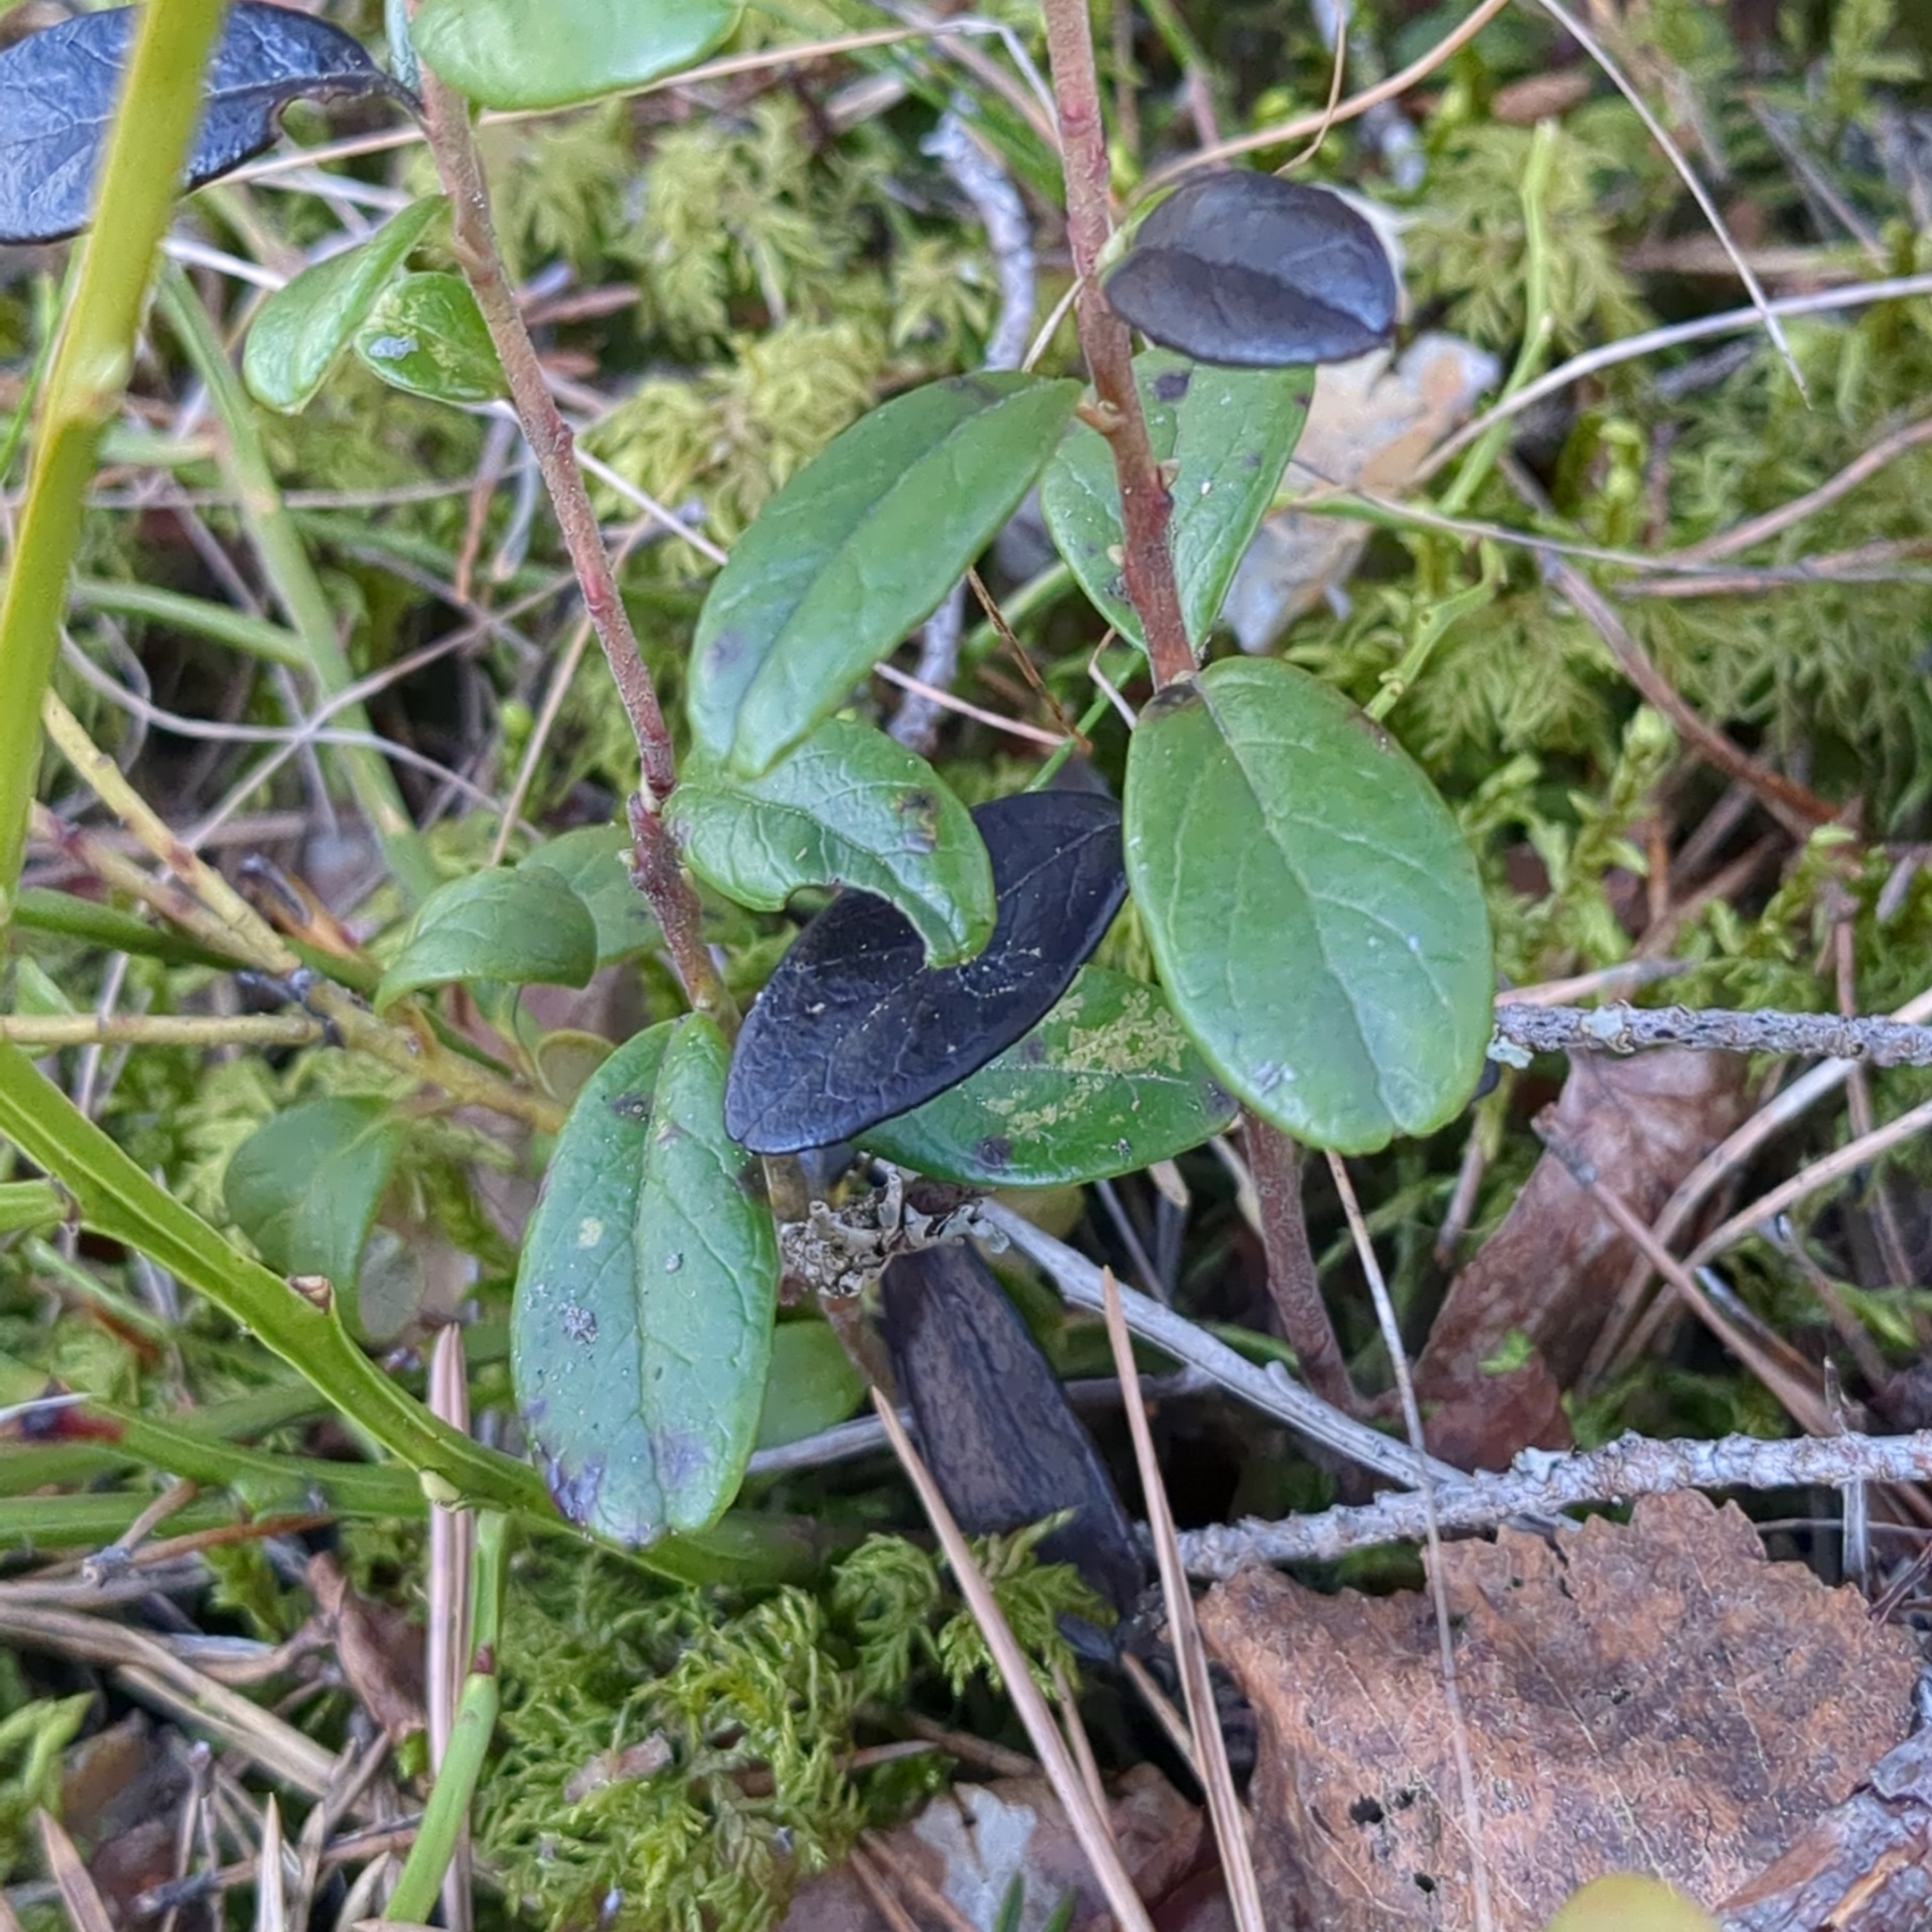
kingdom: Plantae
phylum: Tracheophyta
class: Magnoliopsida
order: Ericales
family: Ericaceae
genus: Vaccinium
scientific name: Vaccinium vitis-idaea
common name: Cowberry
